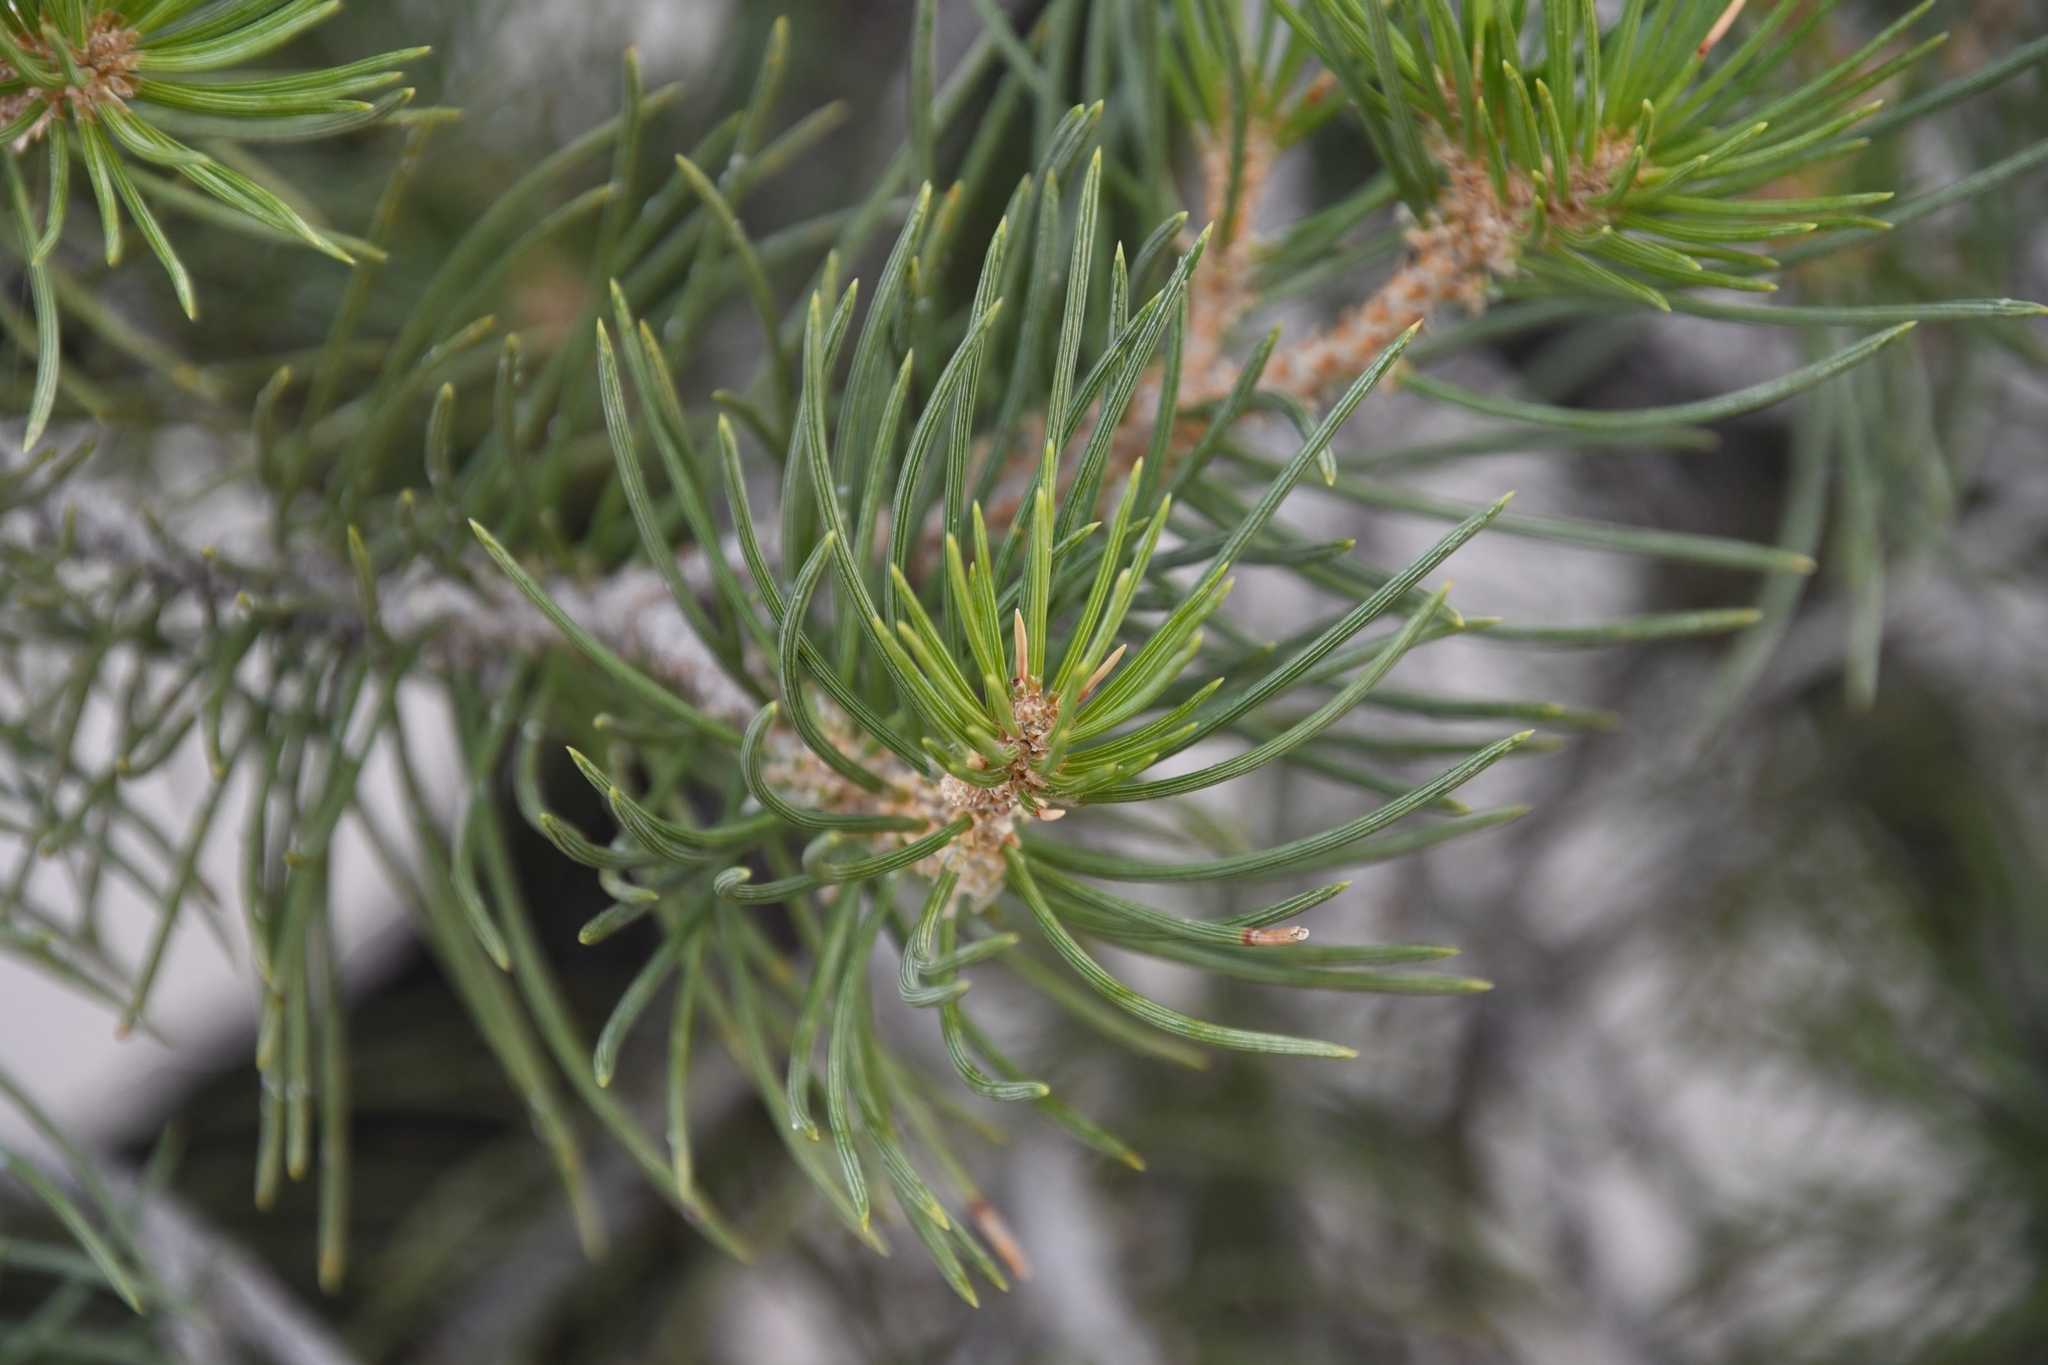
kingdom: Plantae
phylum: Tracheophyta
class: Pinopsida
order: Pinales
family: Pinaceae
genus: Pinus
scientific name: Pinus monophylla
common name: One-leaved nut pine
